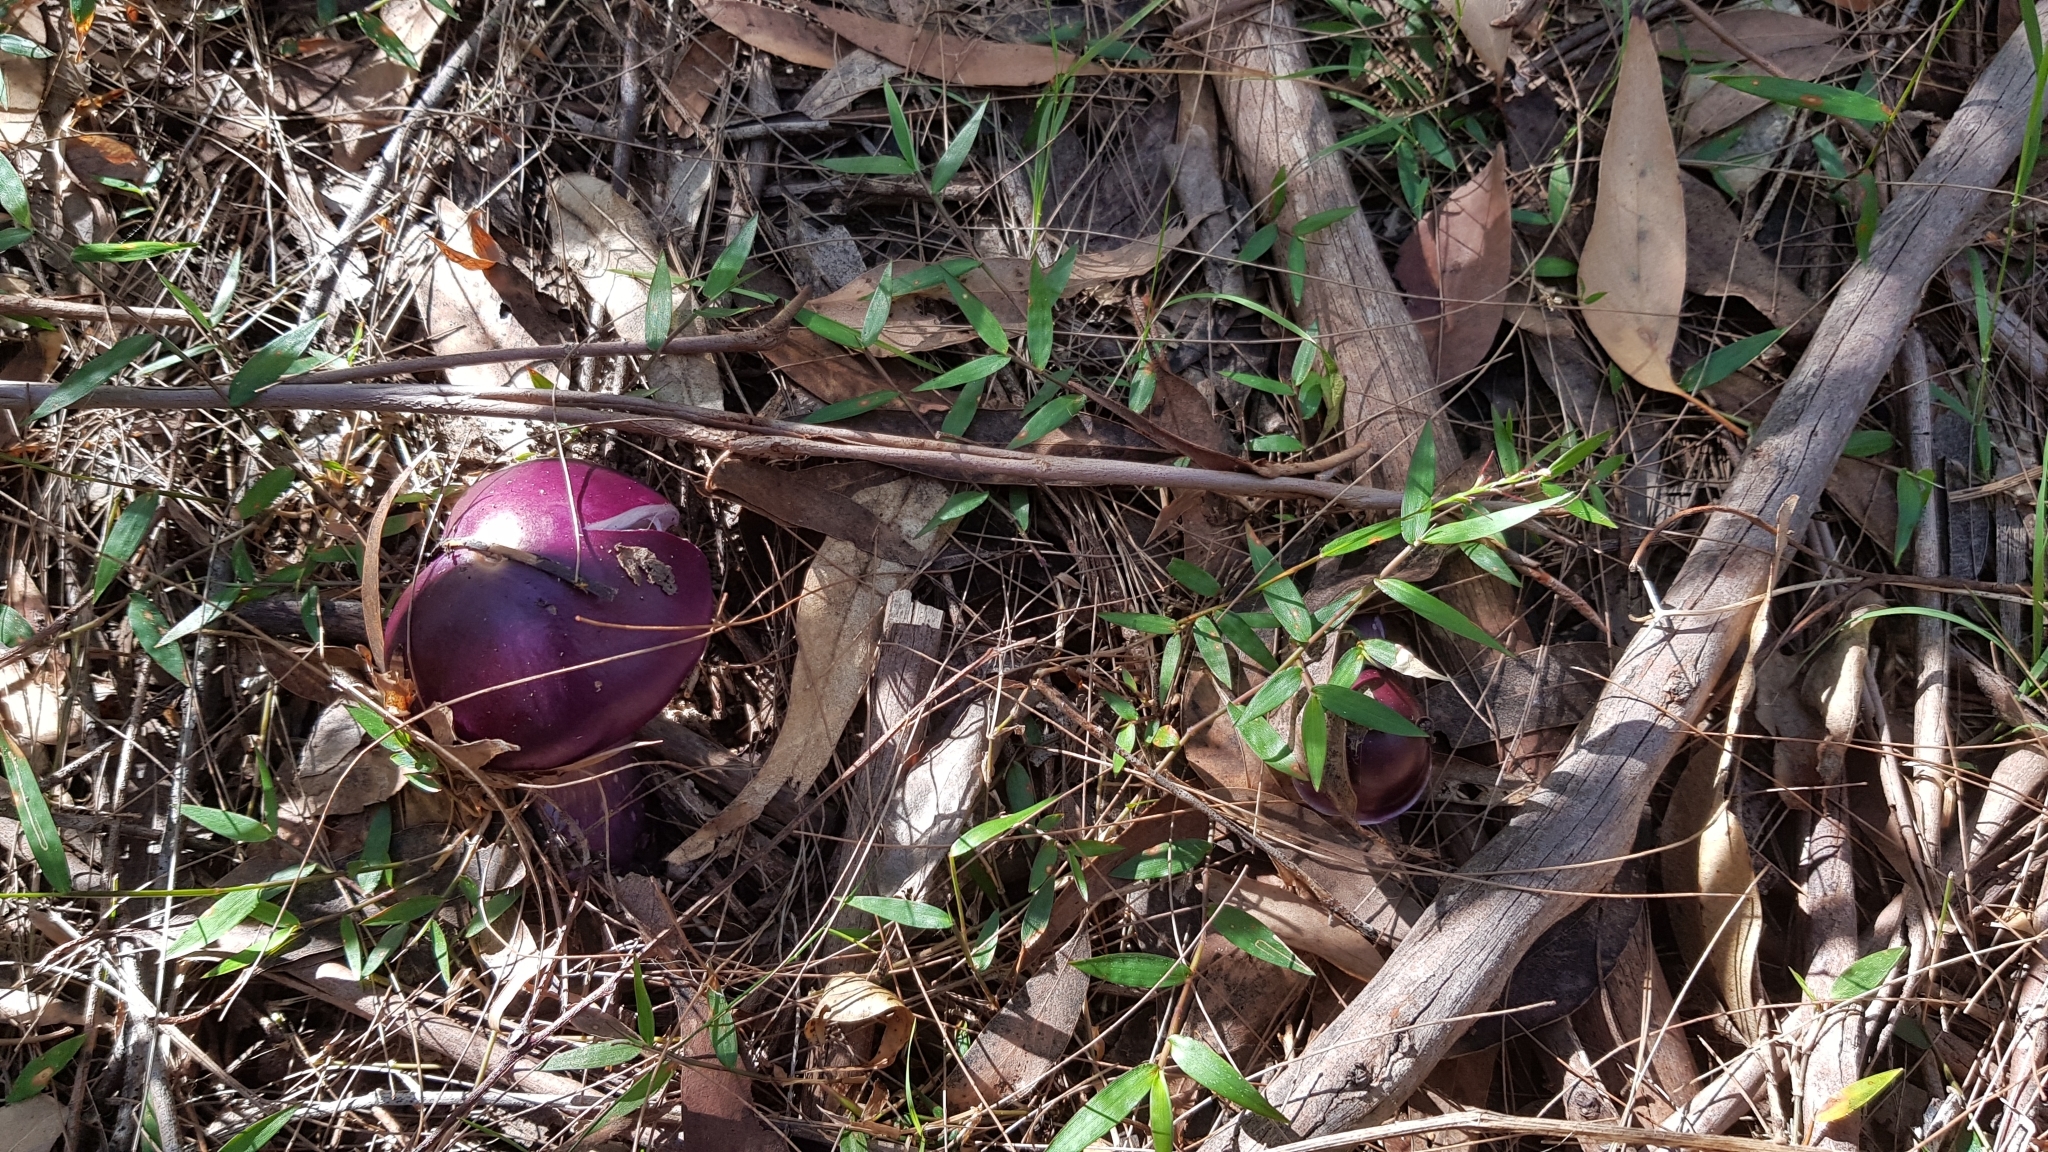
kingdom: Fungi
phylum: Basidiomycota
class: Agaricomycetes
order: Agaricales
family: Cortinariaceae
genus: Cortinarius
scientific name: Cortinarius archeri
